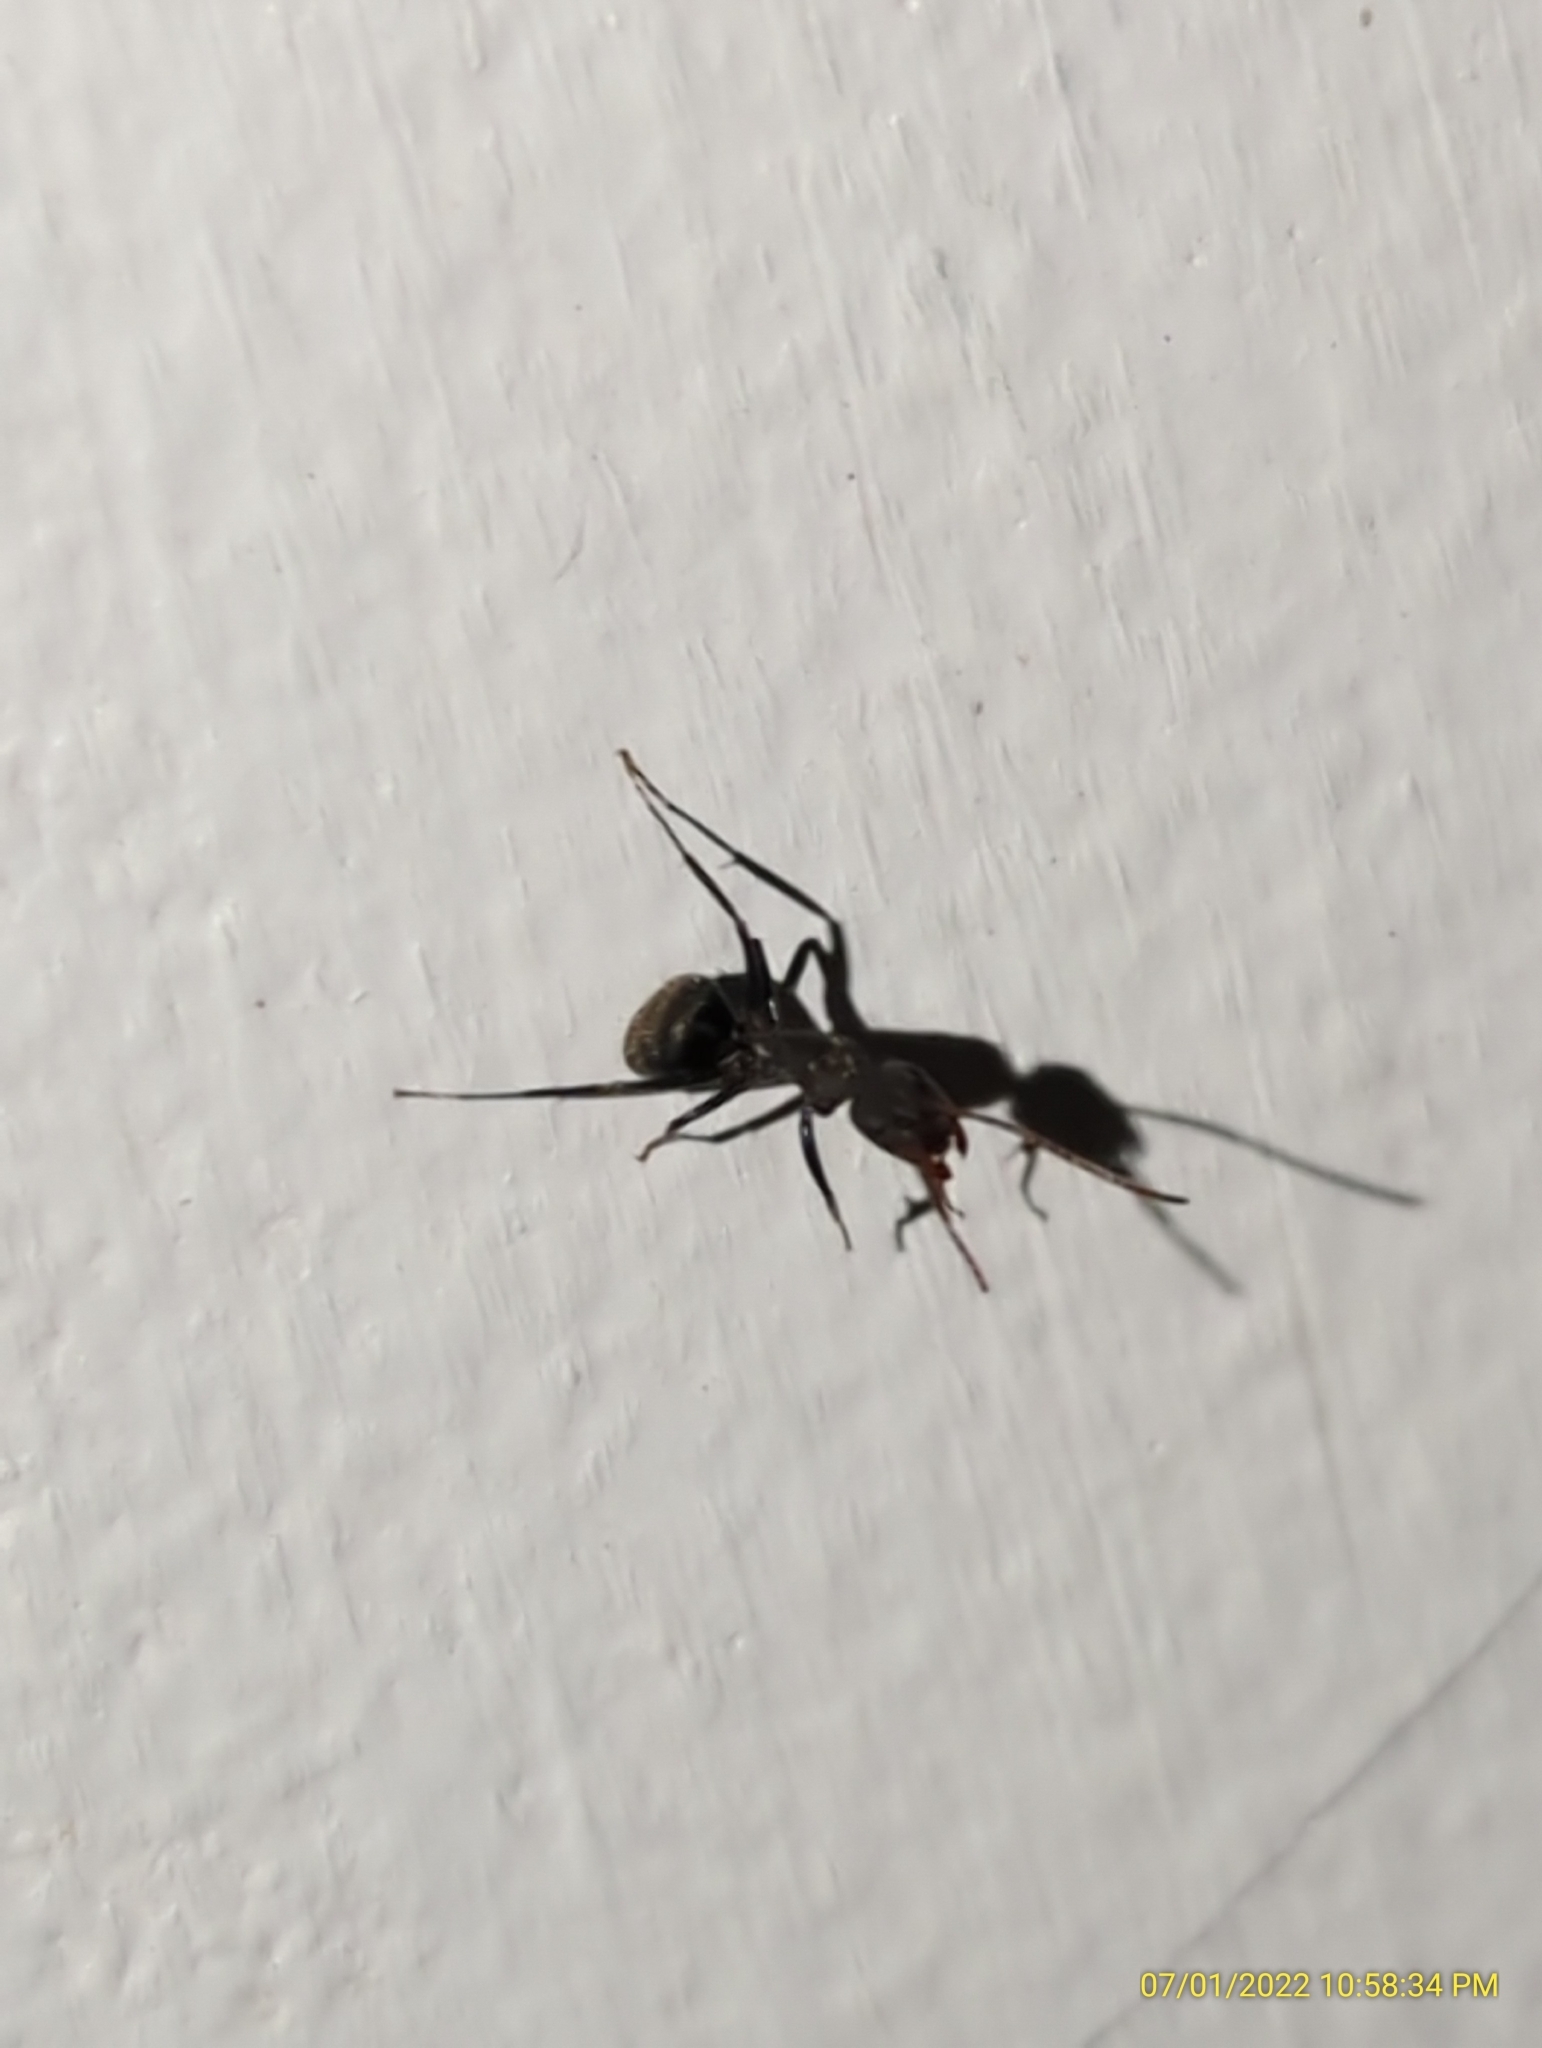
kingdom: Animalia
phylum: Arthropoda
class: Insecta
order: Hymenoptera
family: Formicidae
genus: Camponotus
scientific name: Camponotus novogranadensis
